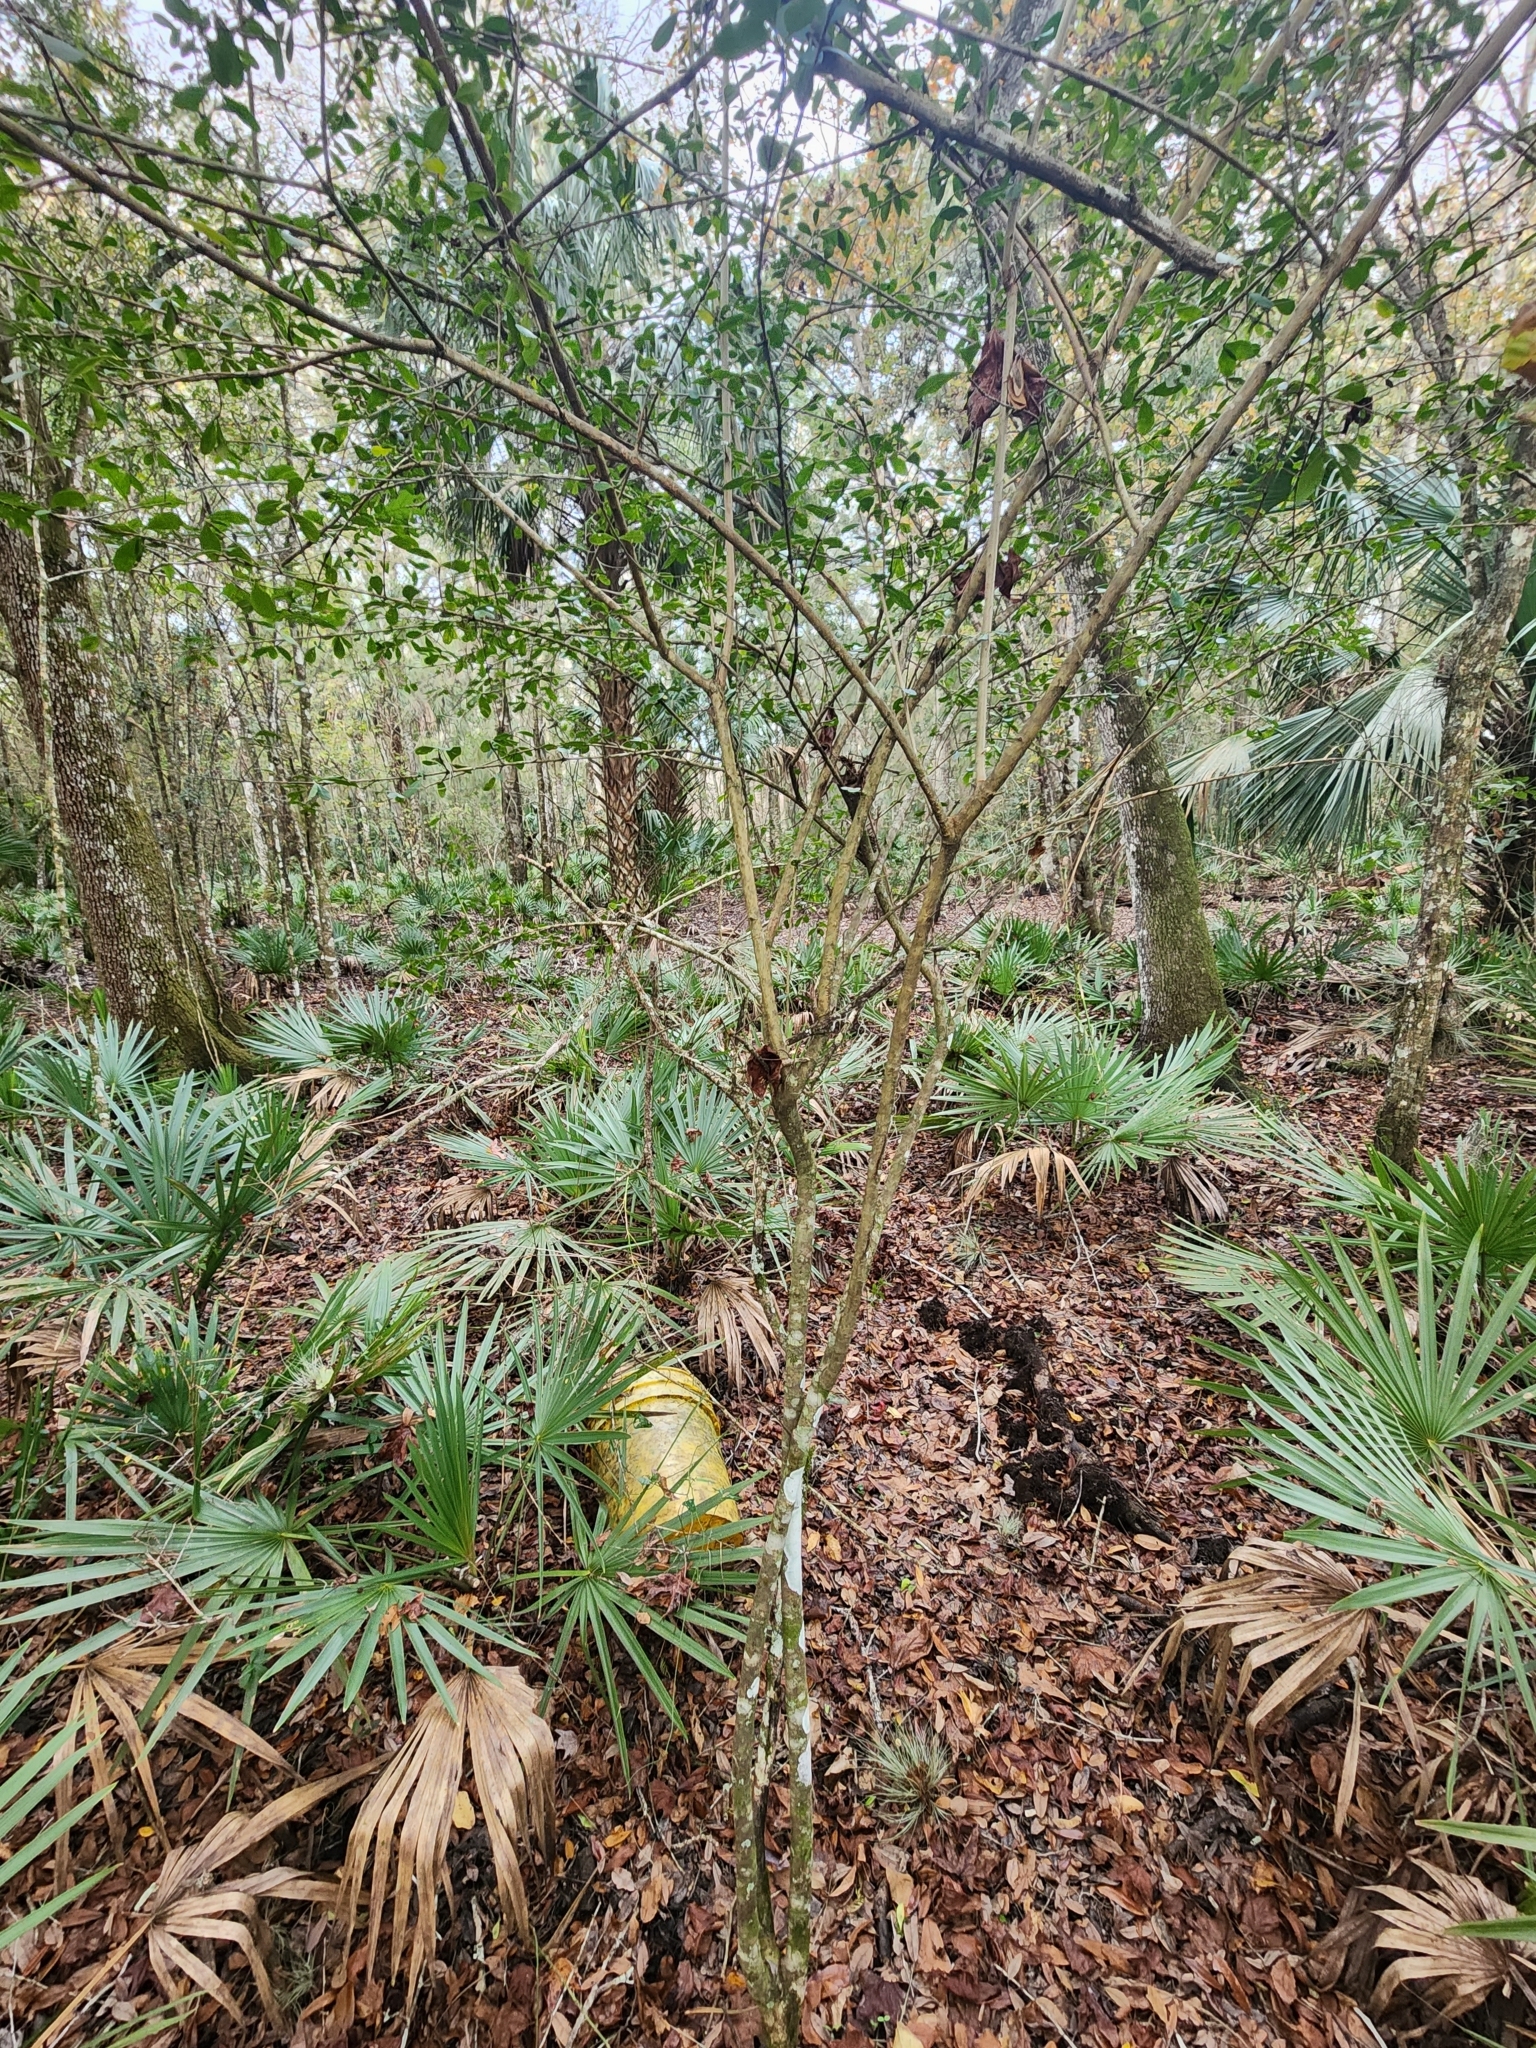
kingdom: Plantae
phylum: Tracheophyta
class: Magnoliopsida
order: Dipsacales
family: Viburnaceae
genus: Viburnum
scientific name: Viburnum obovatum
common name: Walter's viburnum
